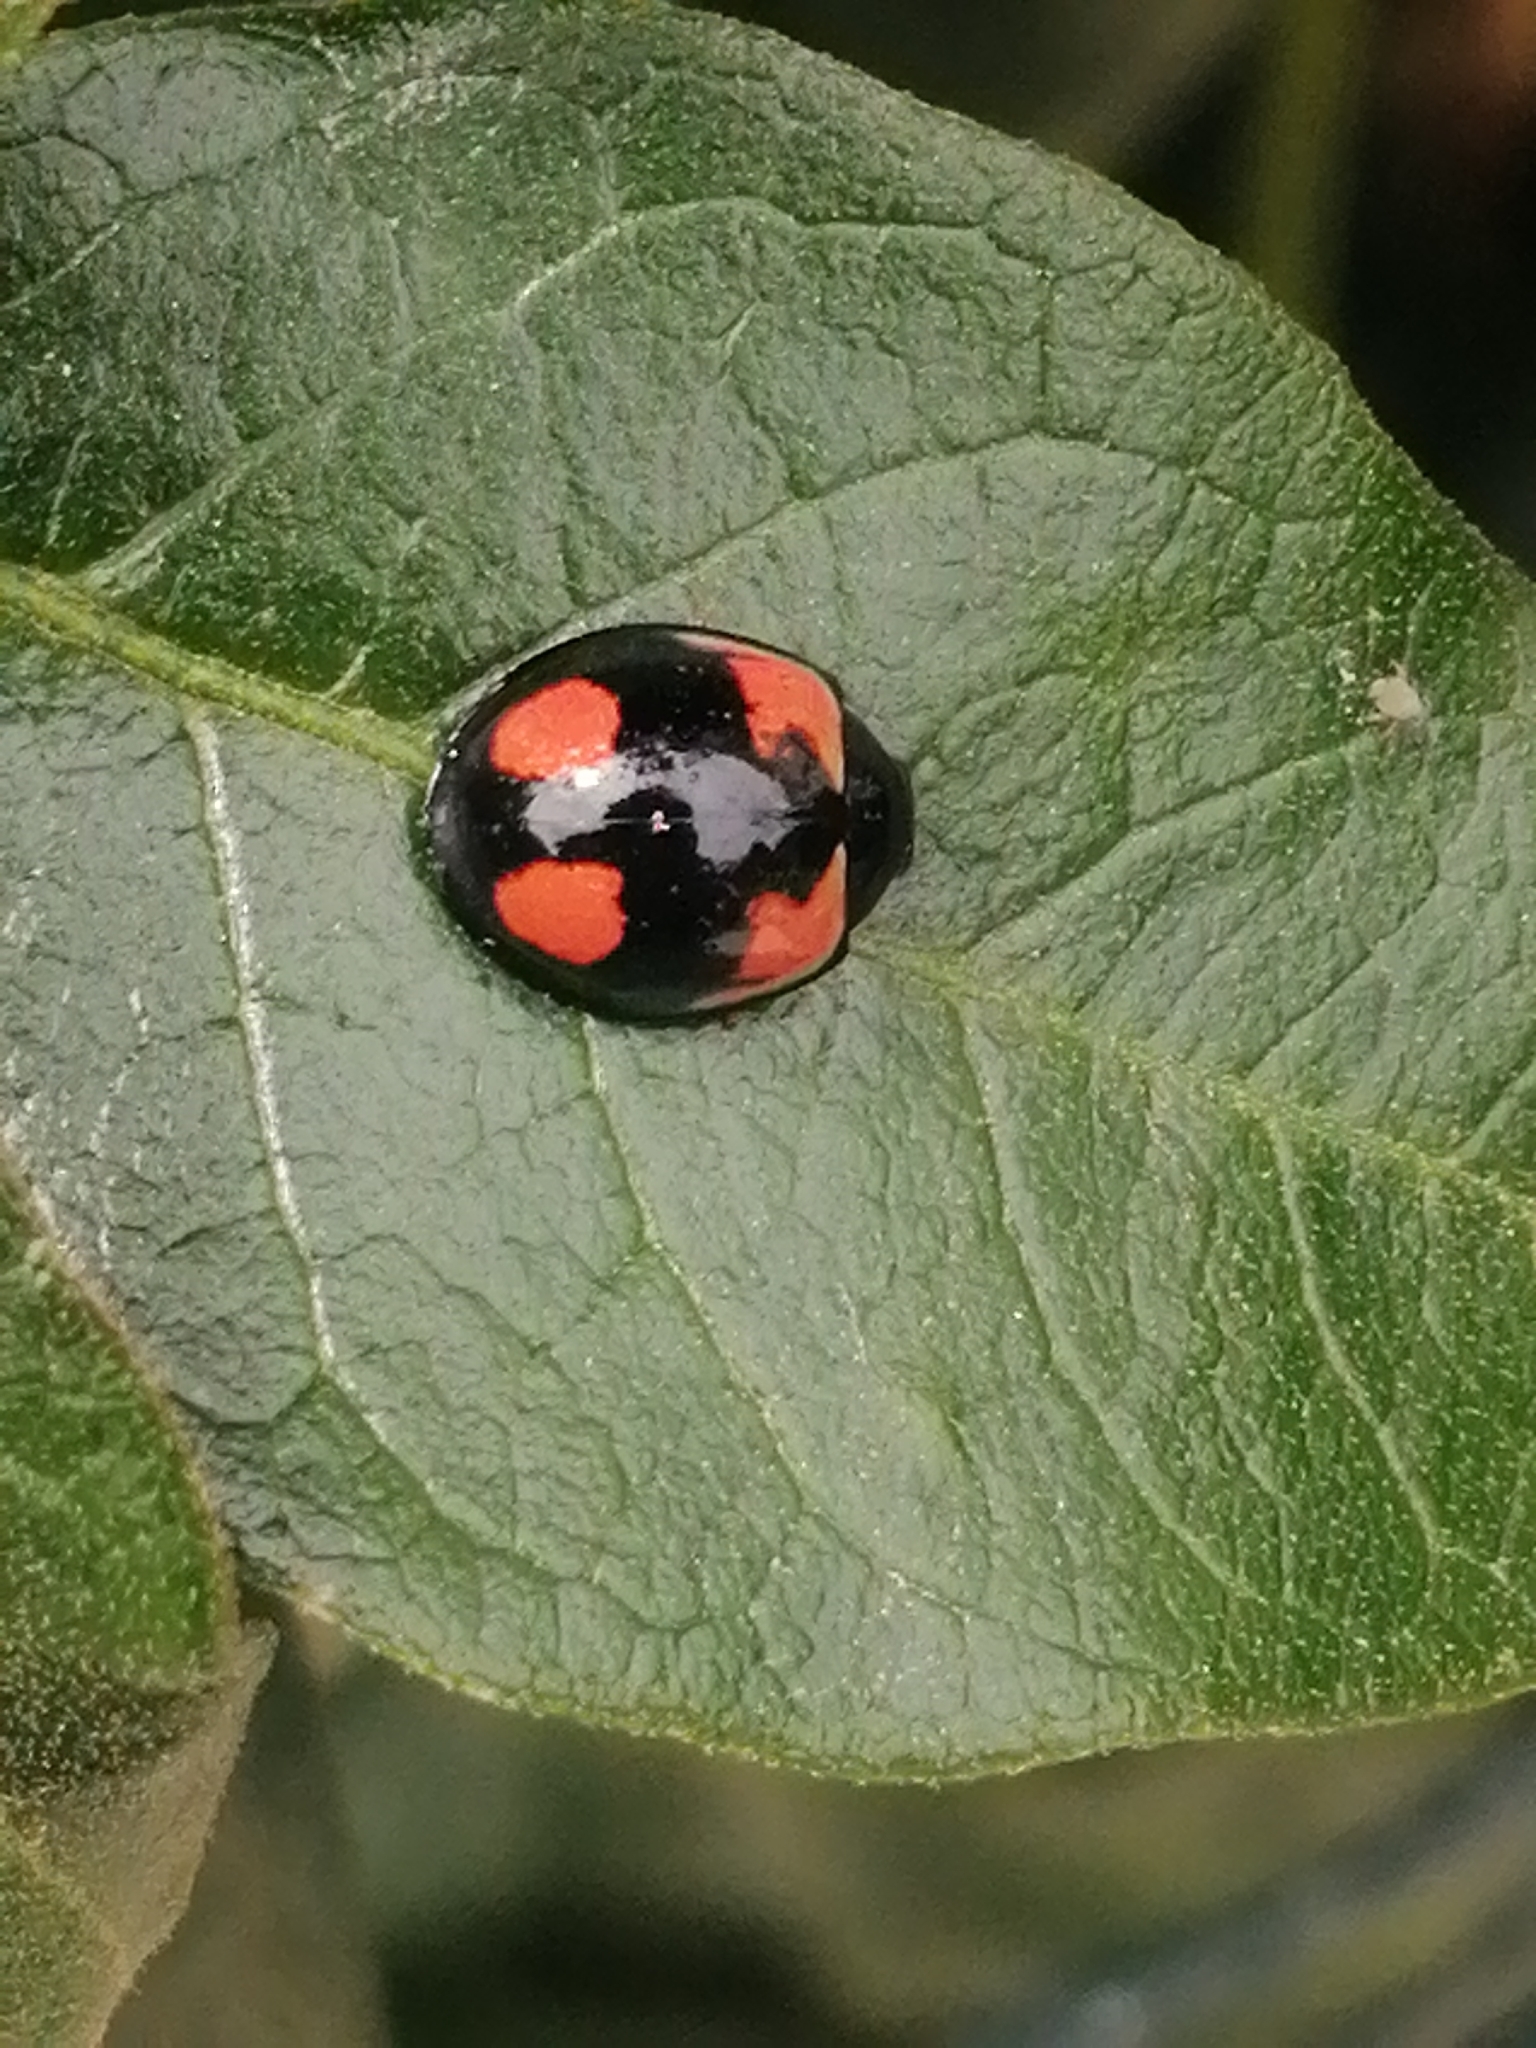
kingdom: Animalia
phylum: Arthropoda
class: Insecta
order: Coleoptera
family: Coccinellidae
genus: Cheilomenes
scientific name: Cheilomenes sexmaculata
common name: Ladybird beetle
